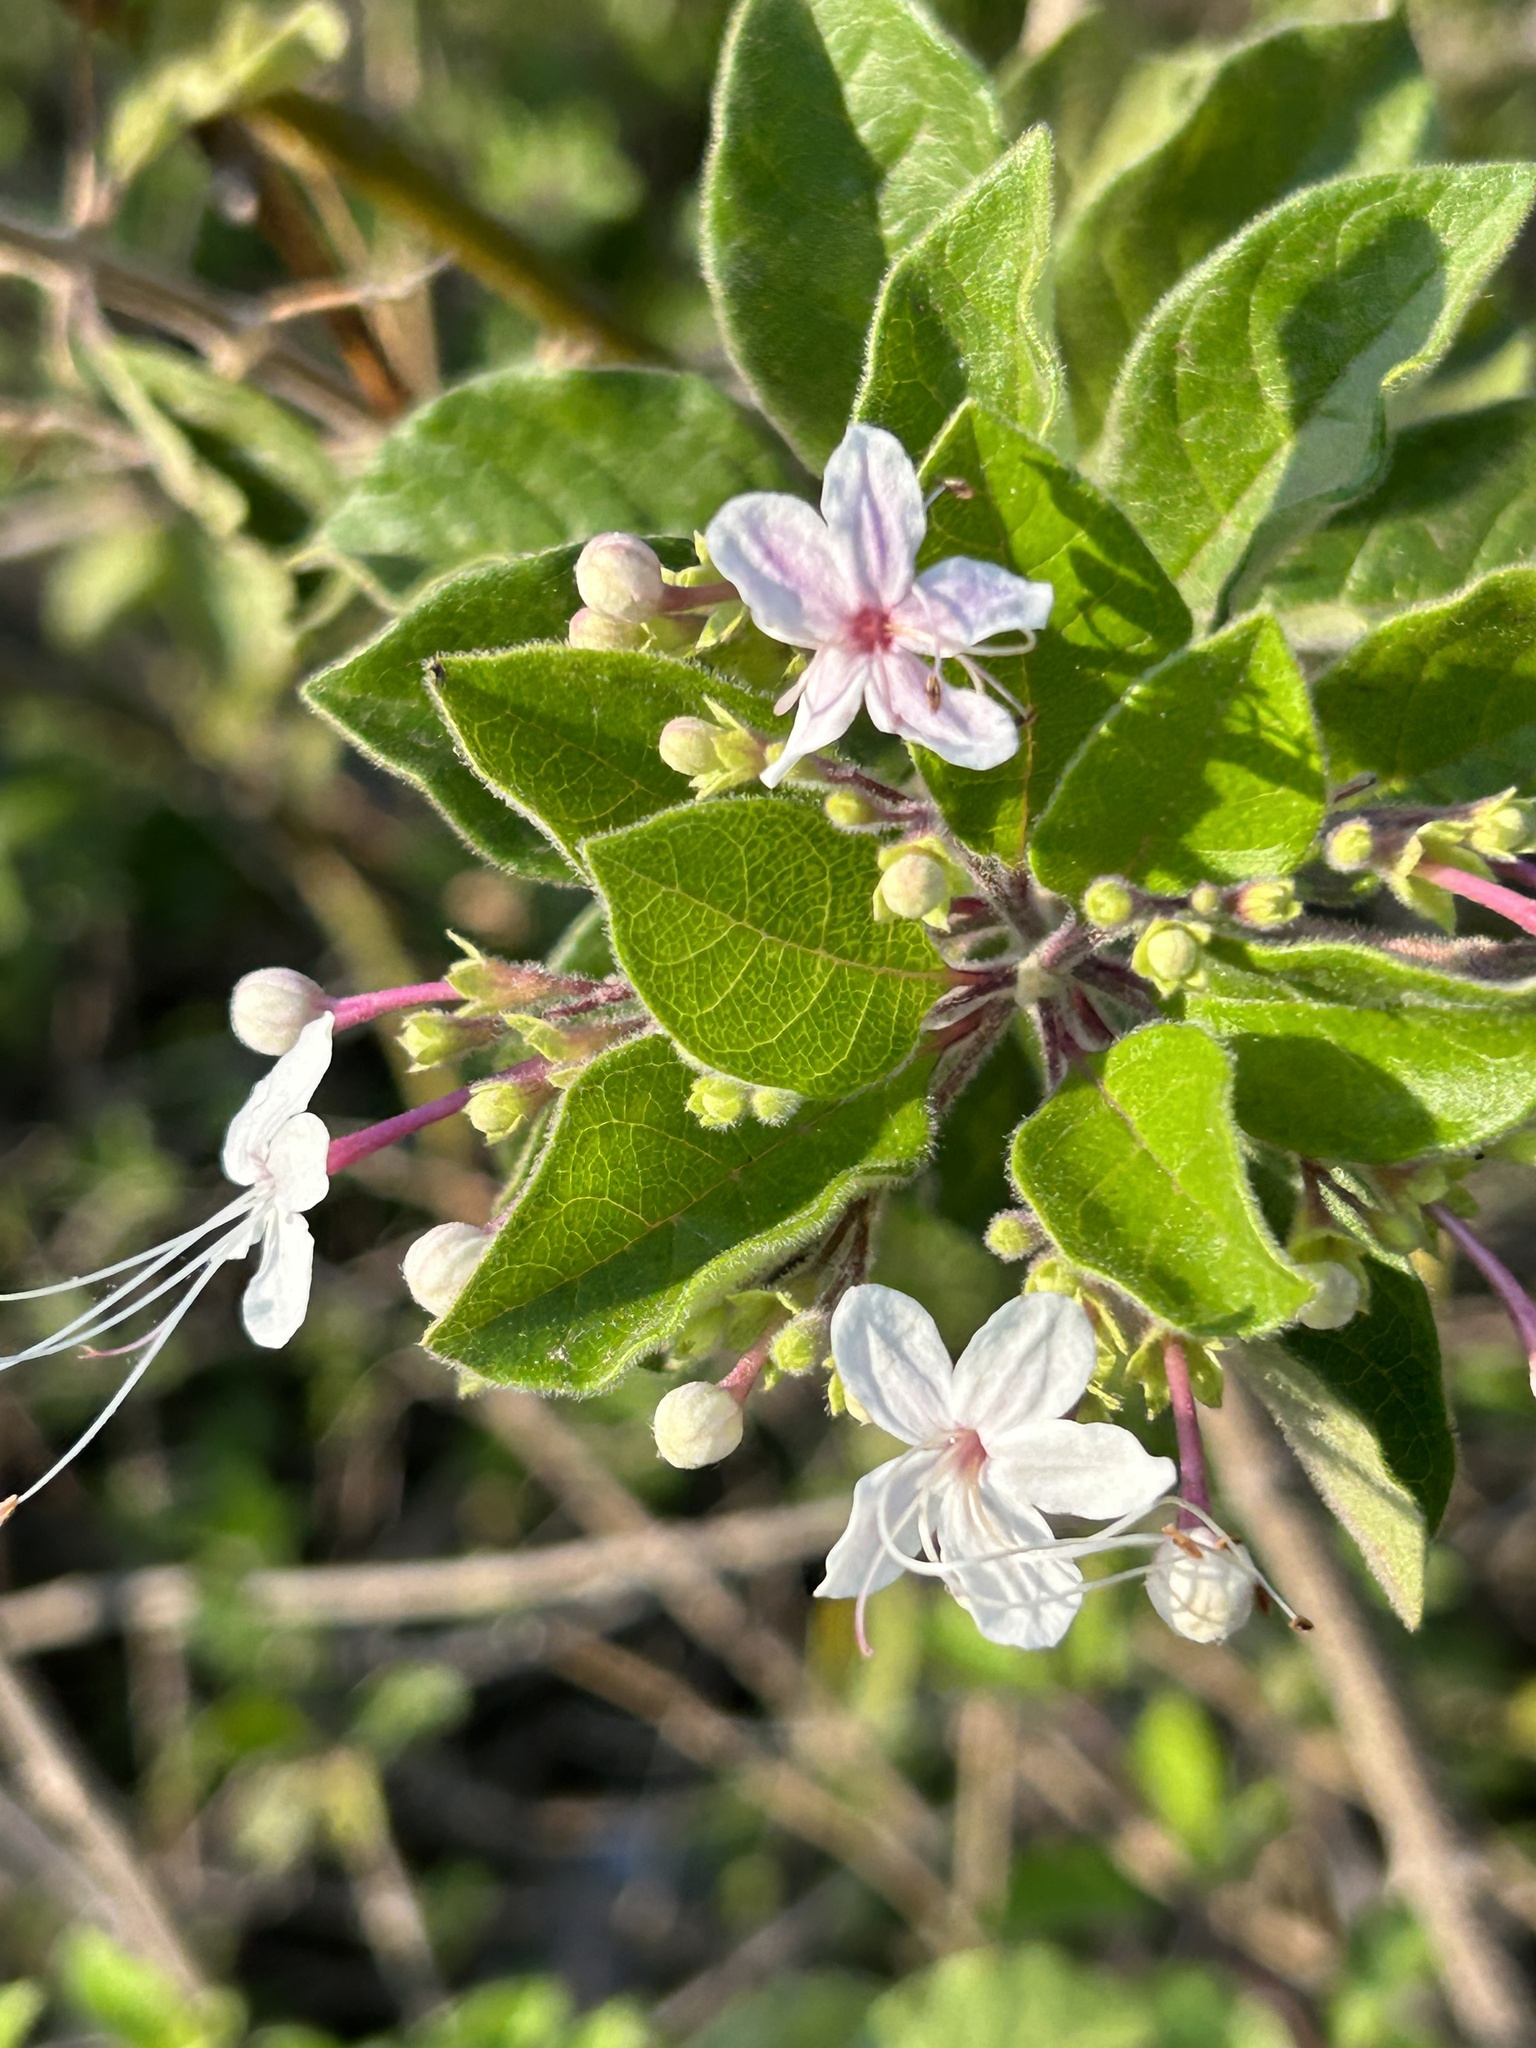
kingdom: Plantae
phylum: Tracheophyta
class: Magnoliopsida
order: Lamiales
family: Lamiaceae
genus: Volkameria
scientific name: Volkameria mollis
